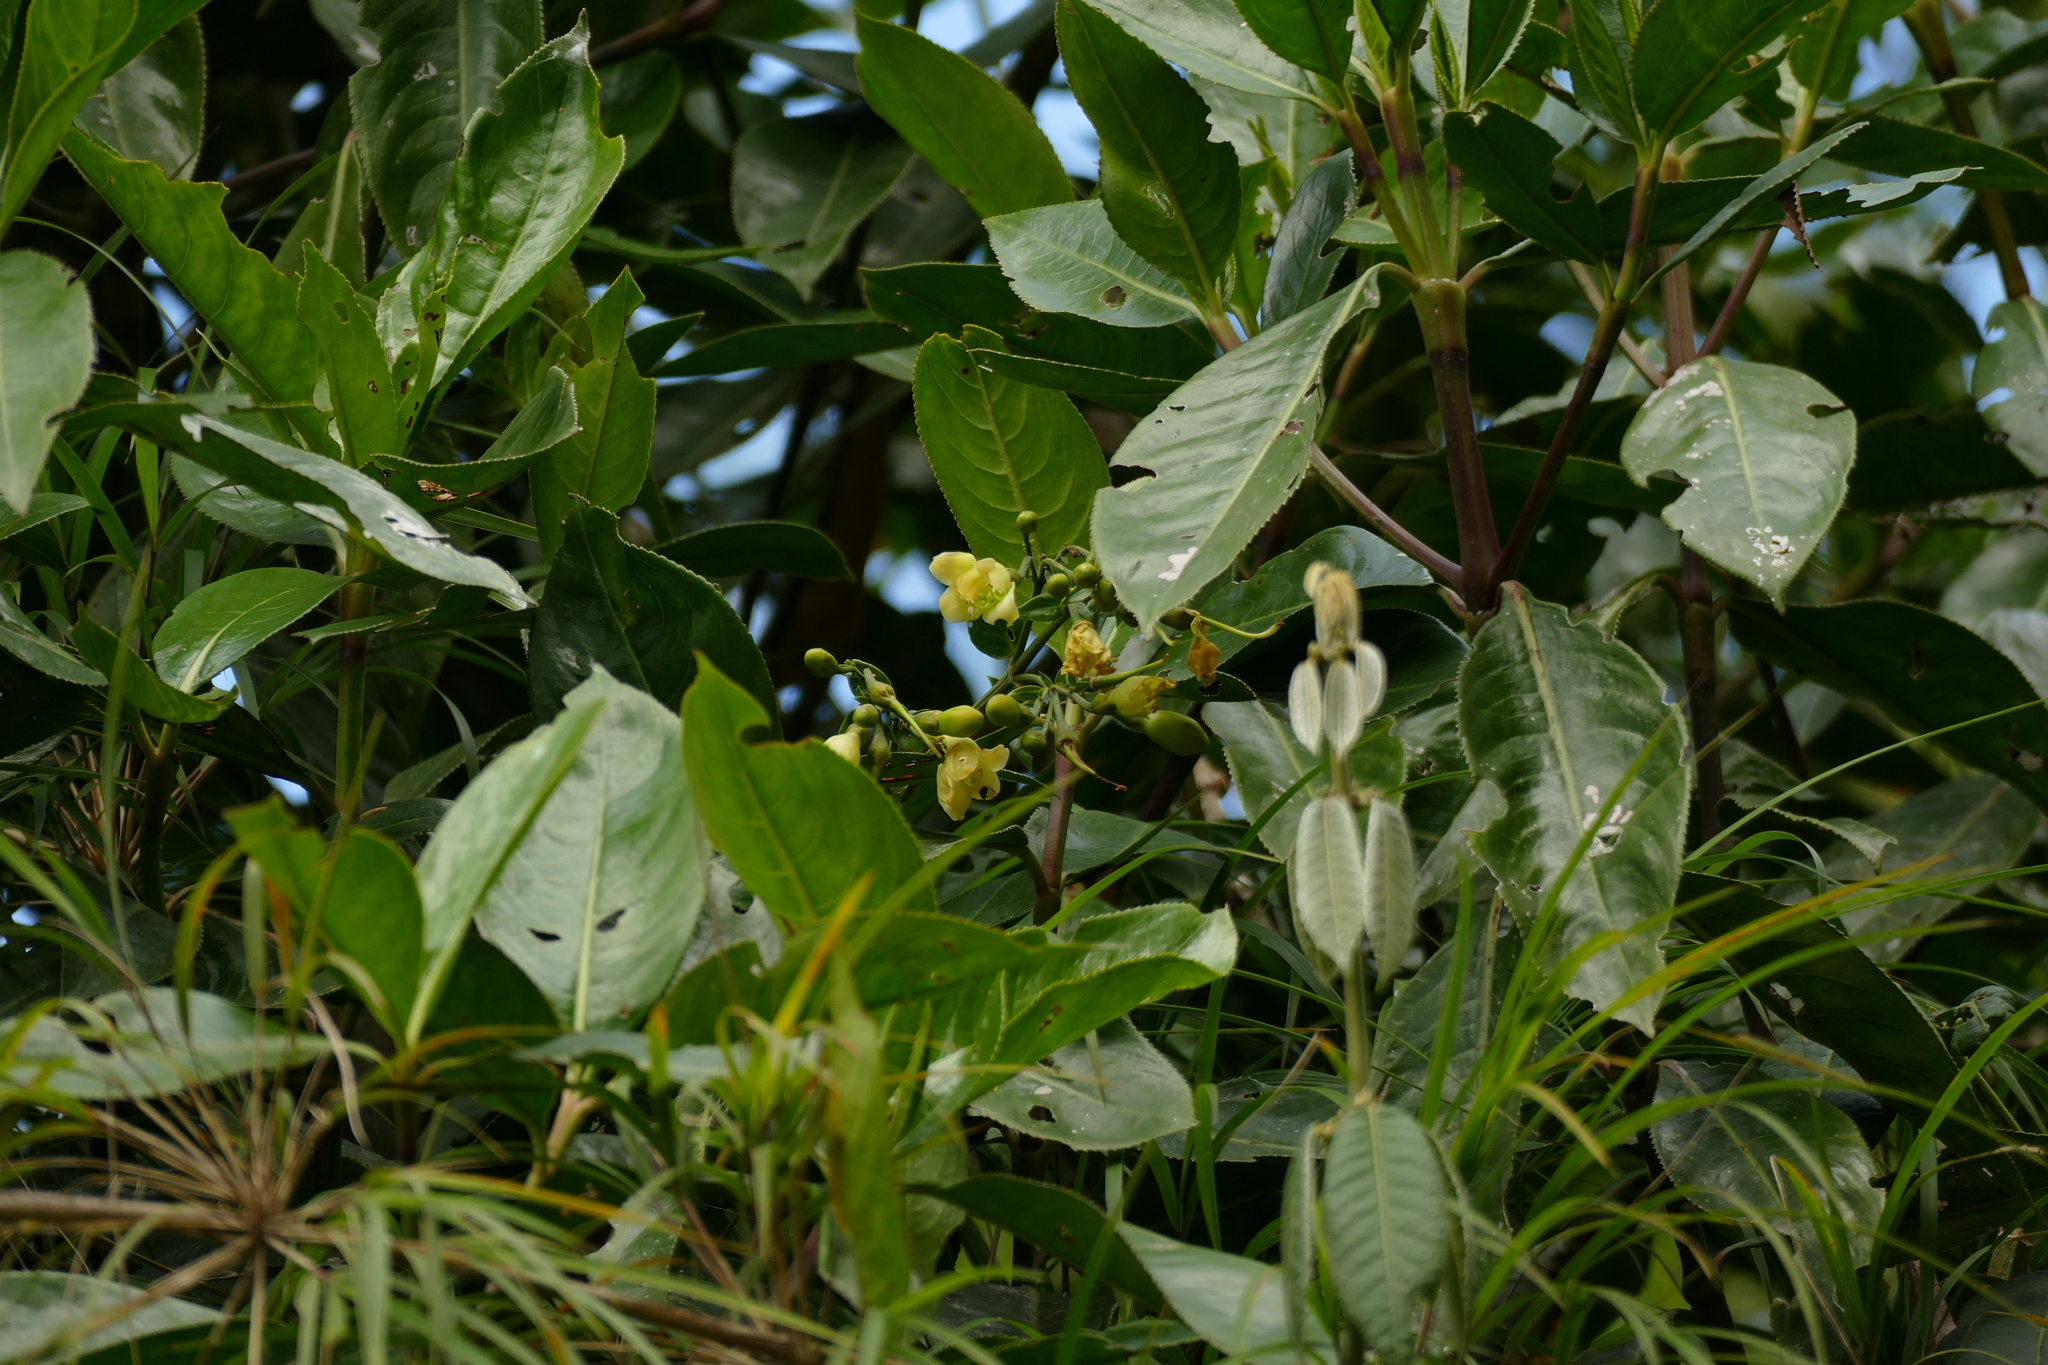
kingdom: Plantae
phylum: Tracheophyta
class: Magnoliopsida
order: Gentianales
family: Gentianaceae
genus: Macrocarpaea
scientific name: Macrocarpaea macrophylla
